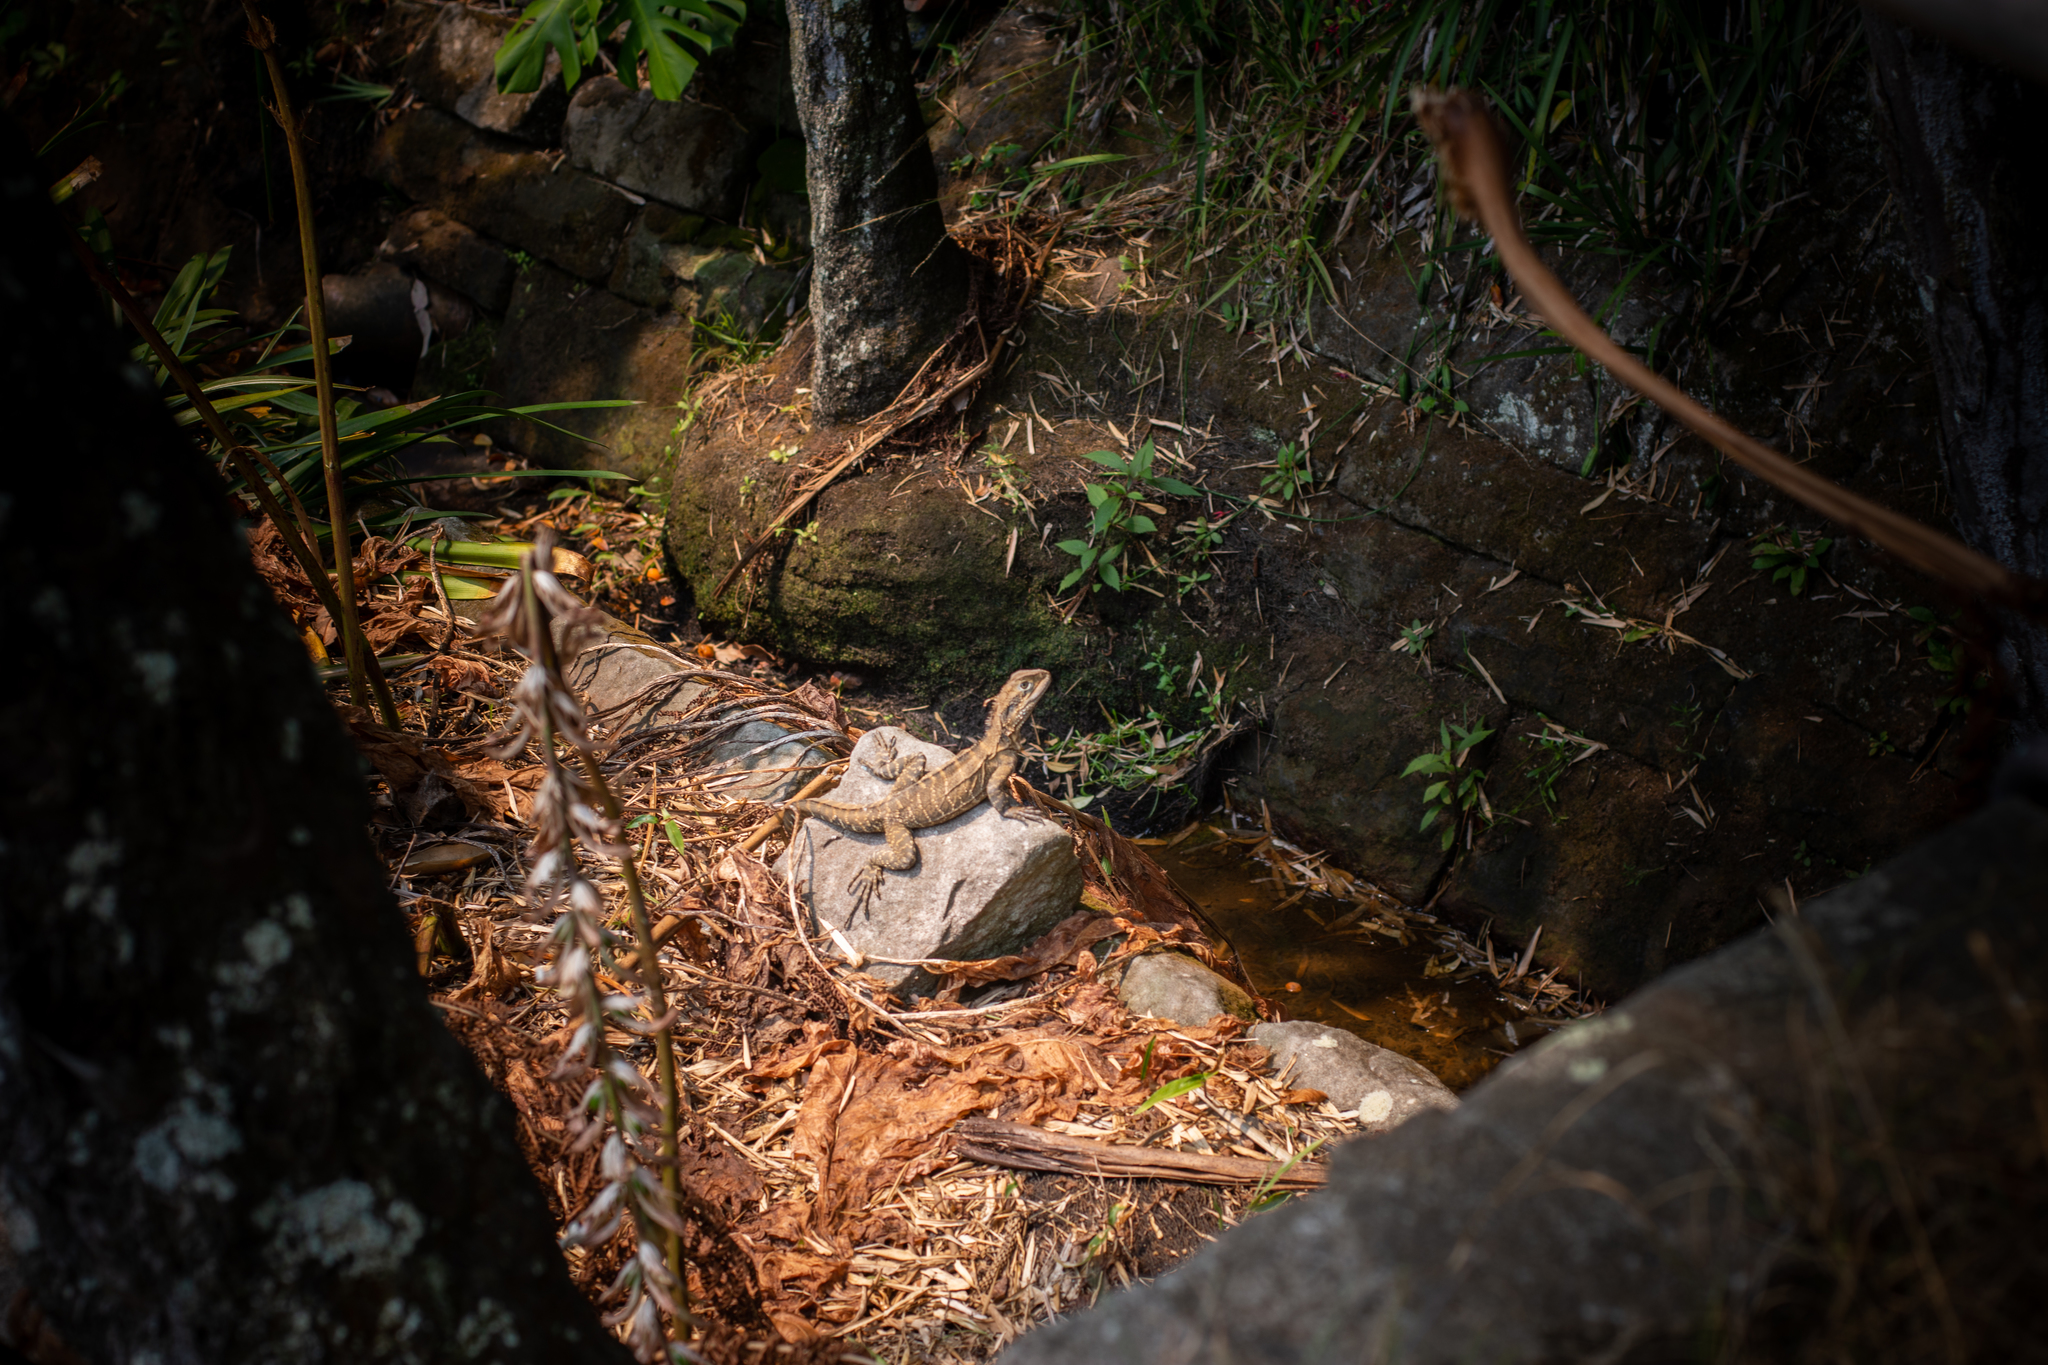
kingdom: Animalia
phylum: Chordata
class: Squamata
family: Agamidae
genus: Intellagama
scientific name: Intellagama lesueurii
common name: Eastern water dragon
